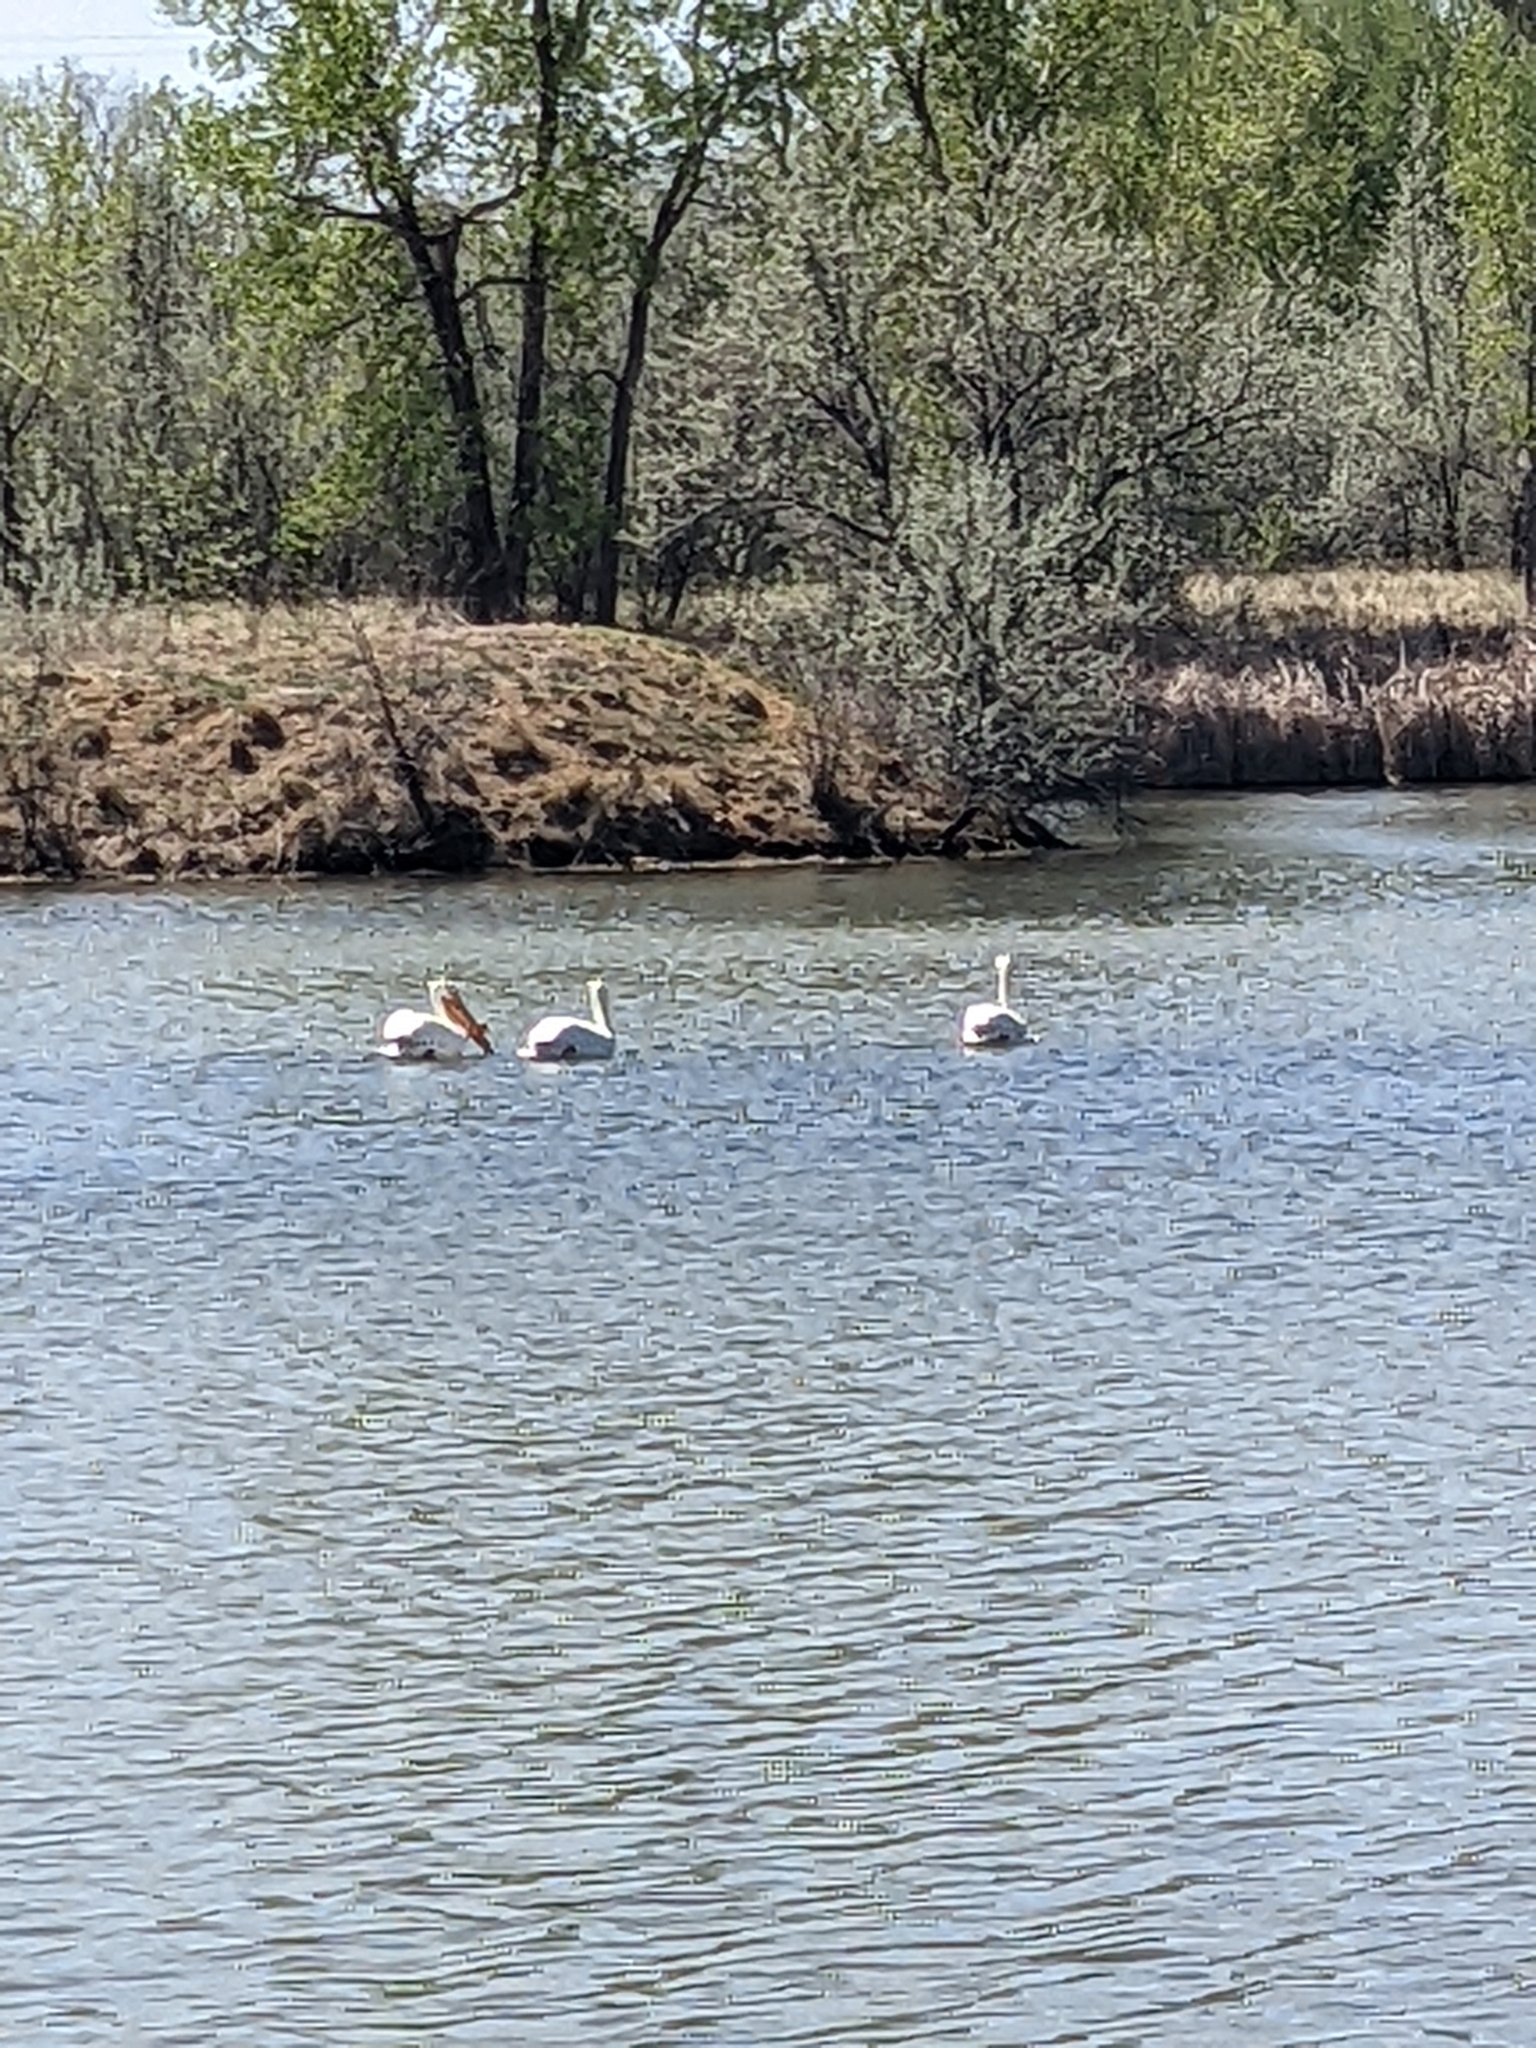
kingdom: Animalia
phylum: Chordata
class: Aves
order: Pelecaniformes
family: Pelecanidae
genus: Pelecanus
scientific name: Pelecanus erythrorhynchos
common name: American white pelican
